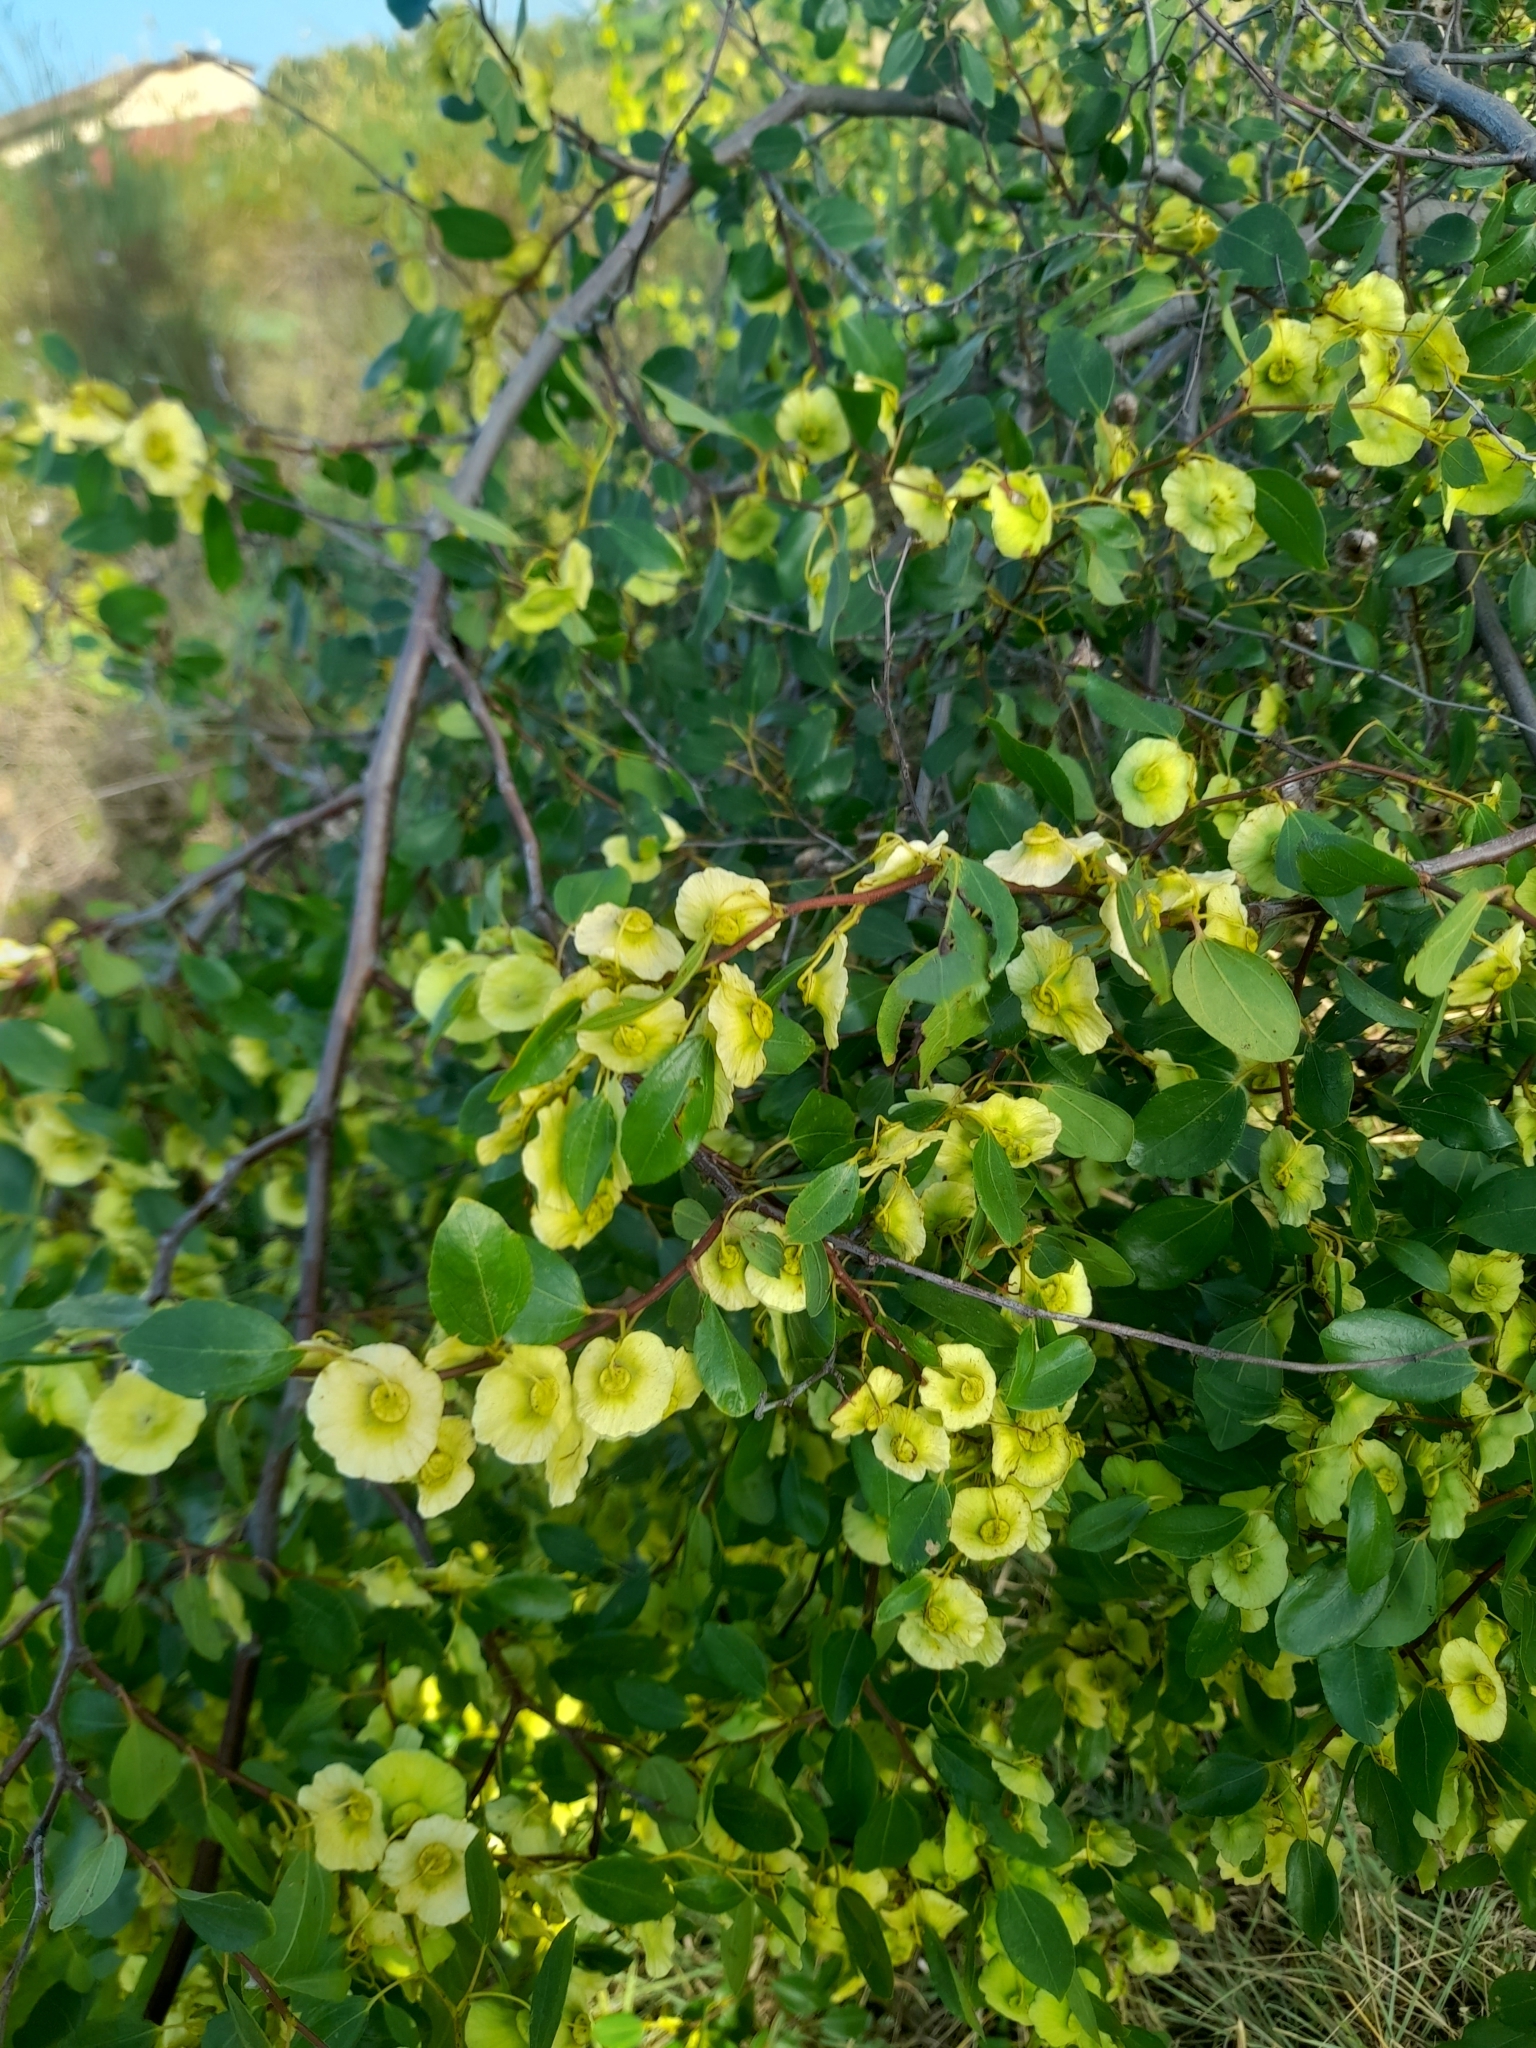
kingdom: Plantae
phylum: Tracheophyta
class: Magnoliopsida
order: Rosales
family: Rhamnaceae
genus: Paliurus
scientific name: Paliurus spina-christi
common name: Jeruselem thorn
